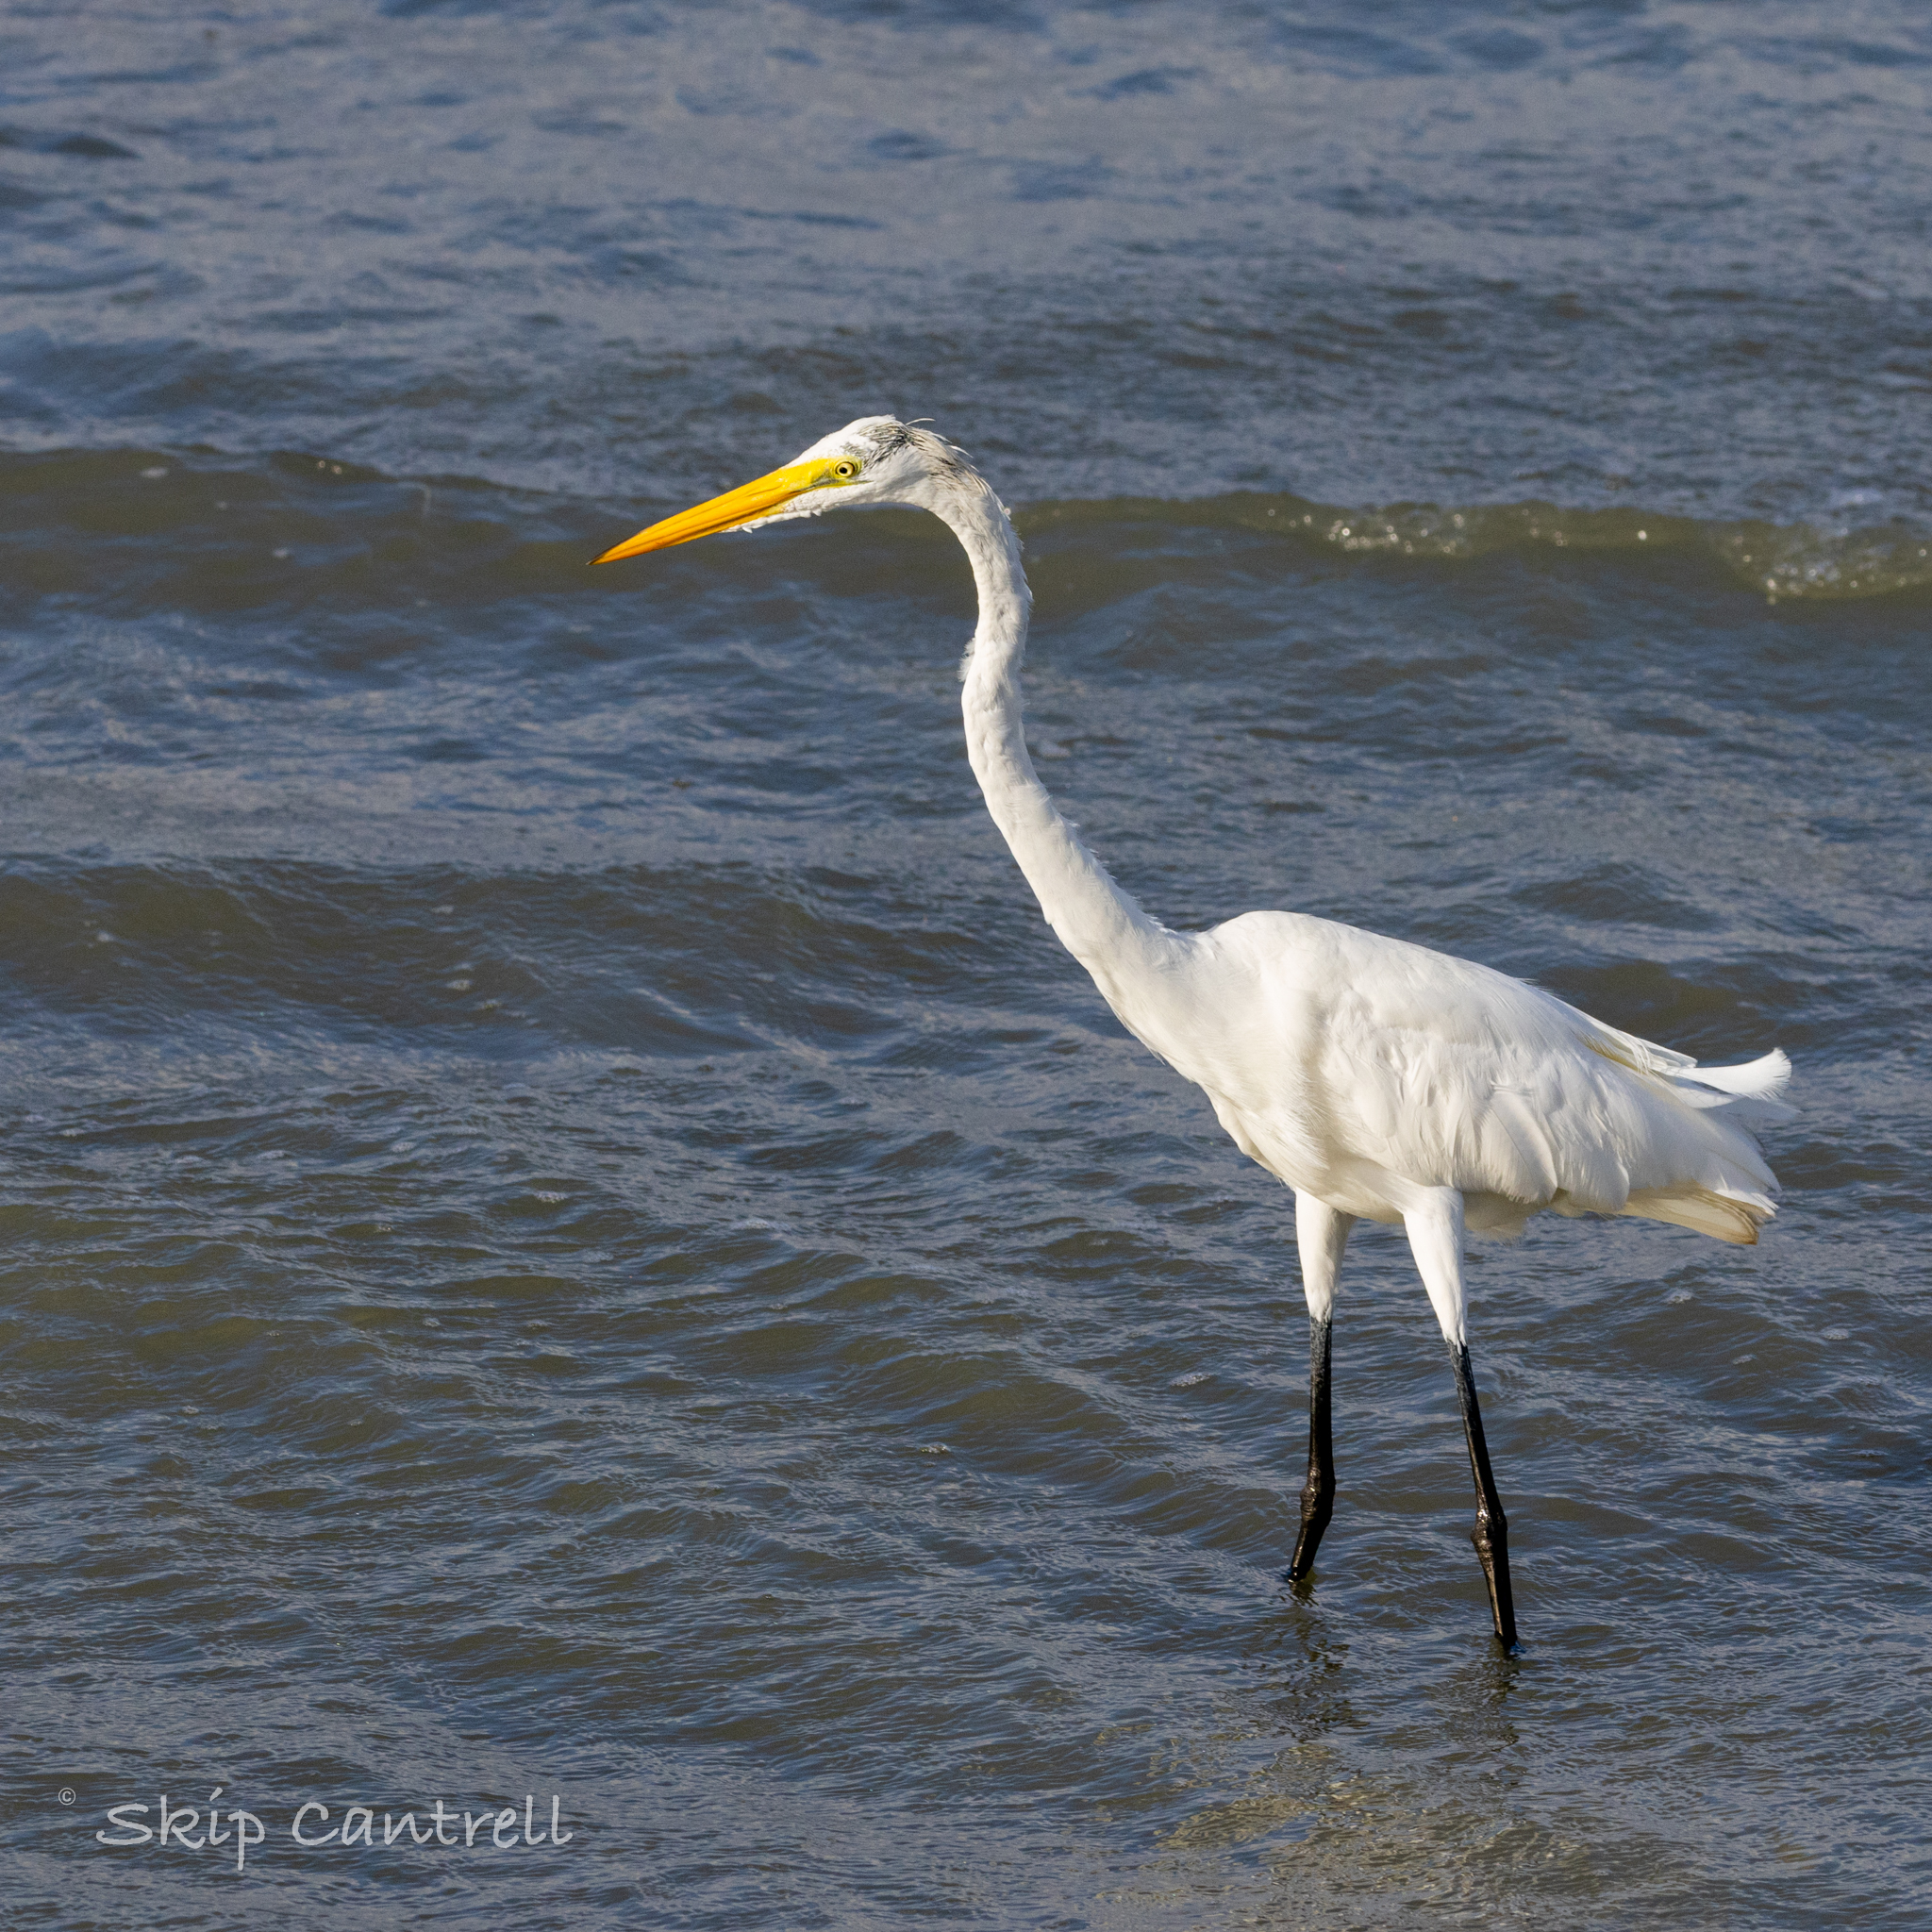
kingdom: Animalia
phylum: Chordata
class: Aves
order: Pelecaniformes
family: Ardeidae
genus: Ardea
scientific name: Ardea alba
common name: Great egret
